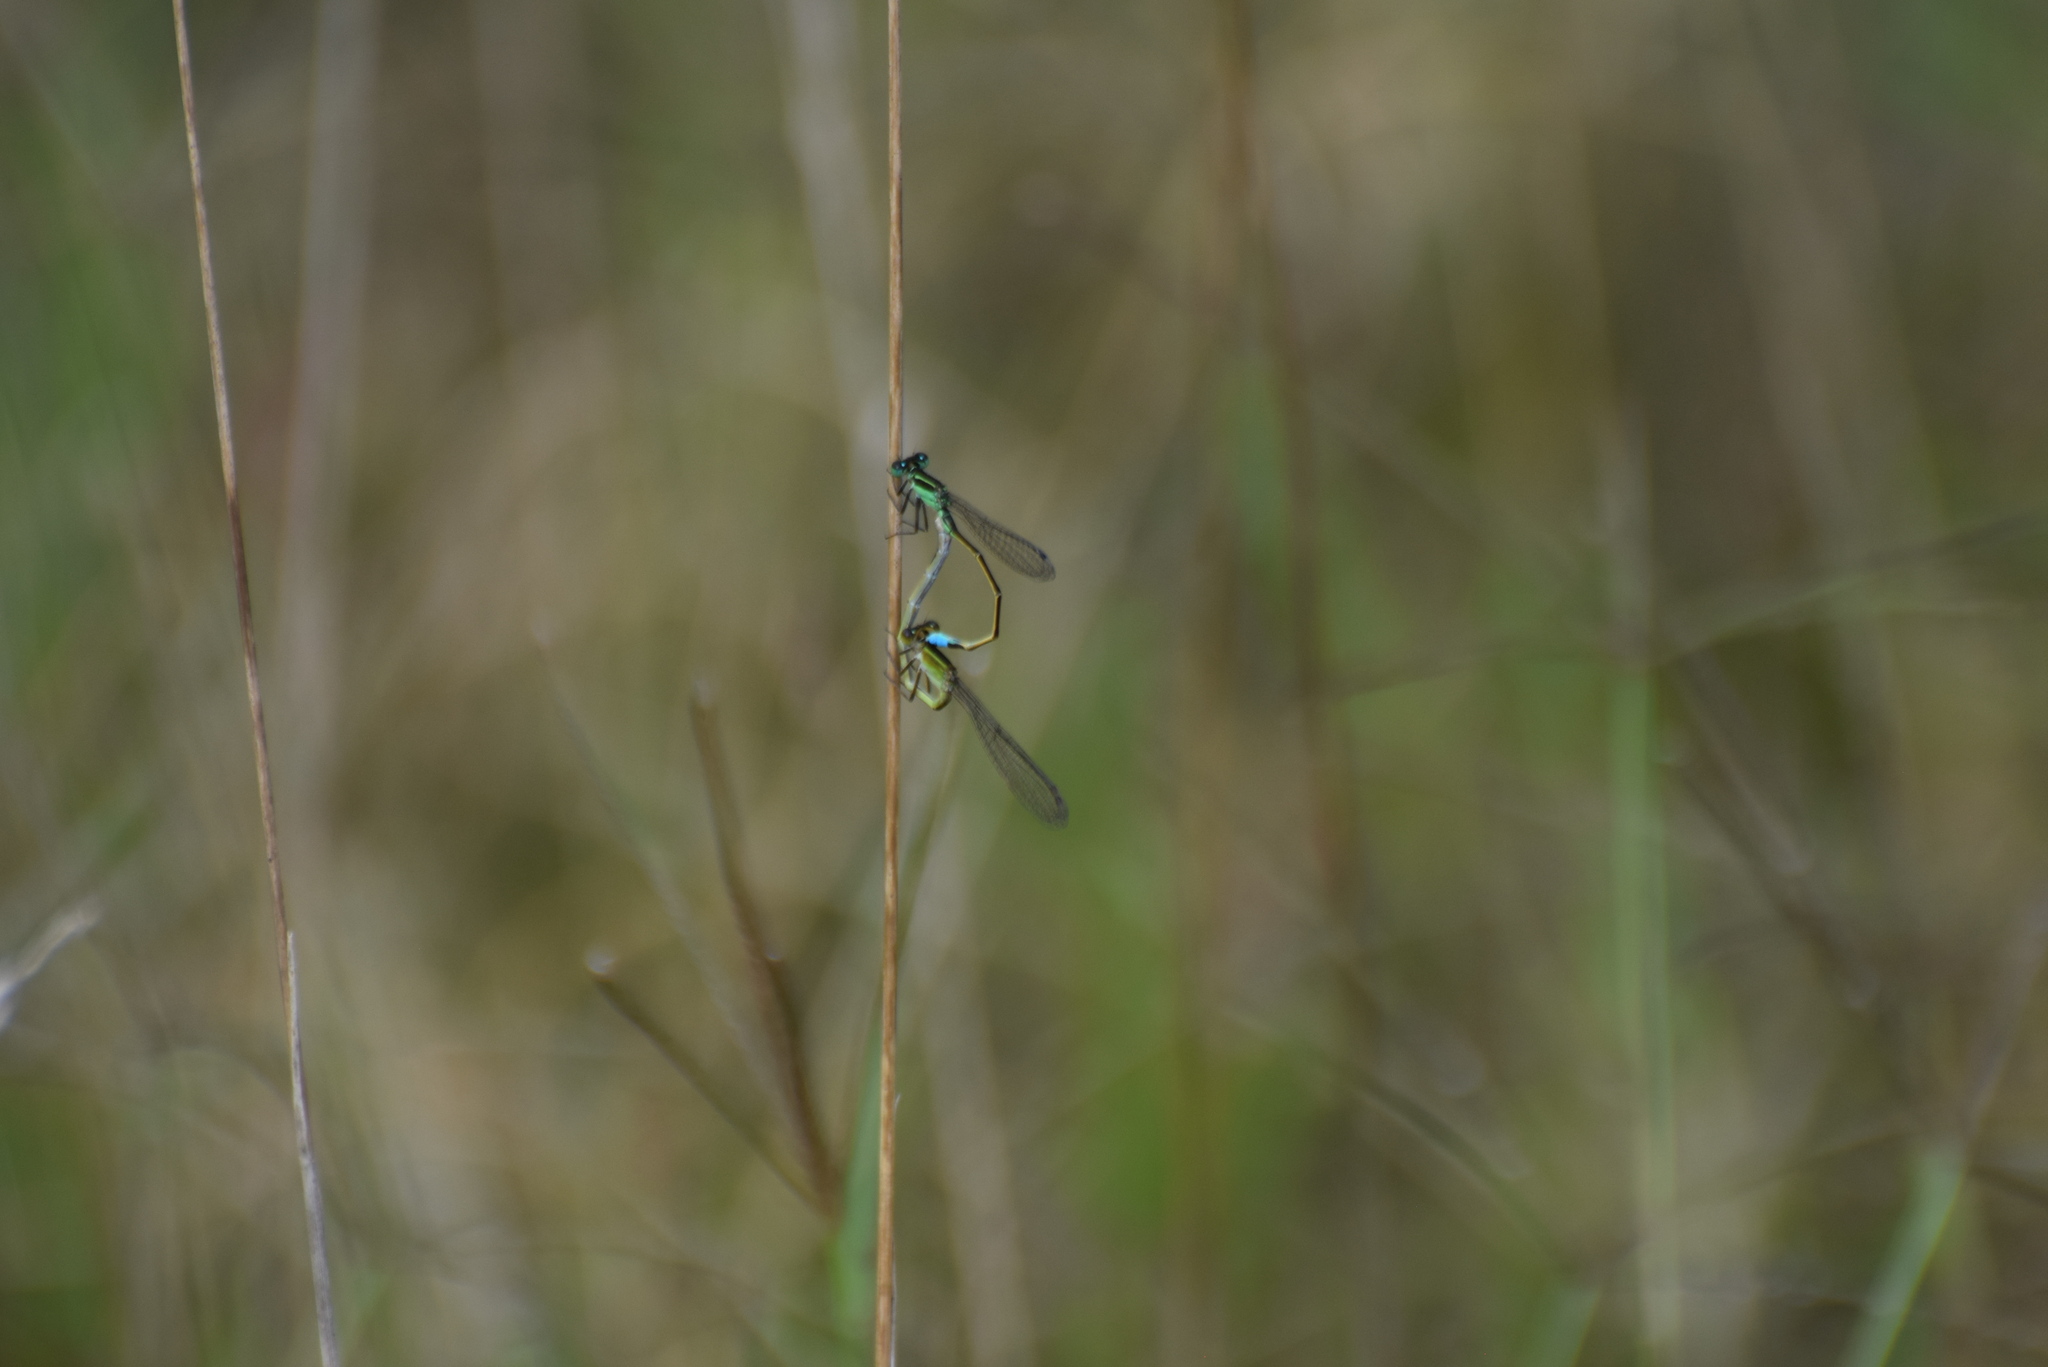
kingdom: Animalia
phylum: Arthropoda
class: Insecta
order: Odonata
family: Coenagrionidae
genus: Ischnura
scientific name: Ischnura ramburii
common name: Rambur's forktail
